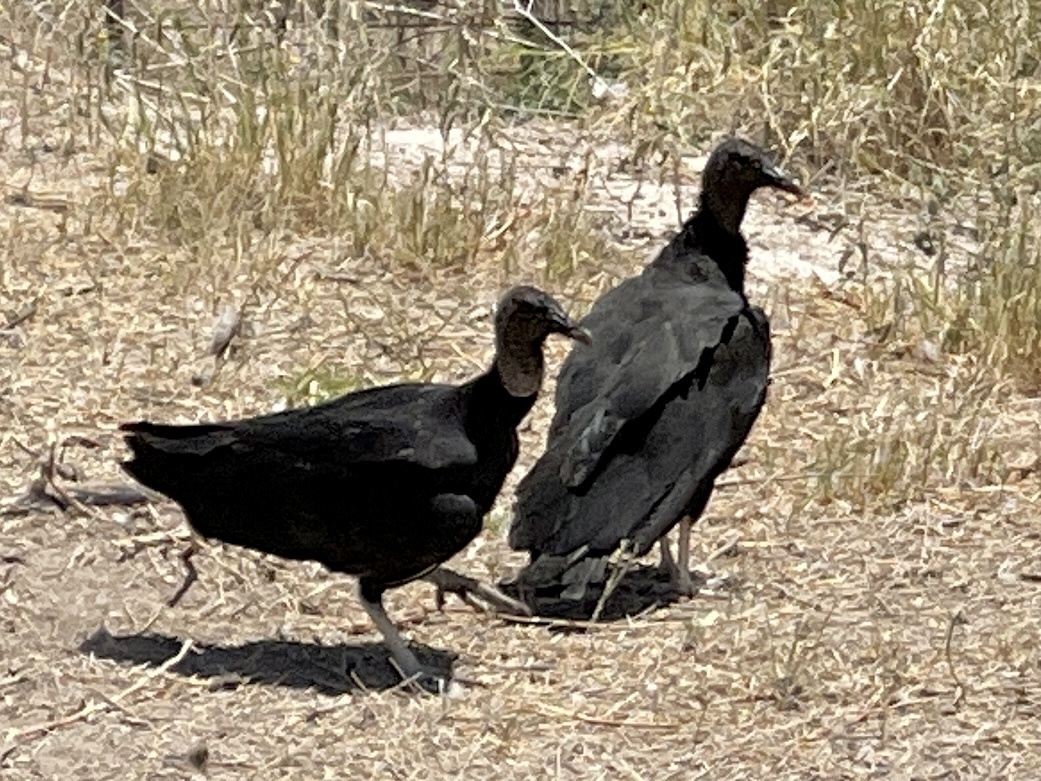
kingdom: Animalia
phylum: Chordata
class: Aves
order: Accipitriformes
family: Cathartidae
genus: Coragyps
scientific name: Coragyps atratus
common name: Black vulture
